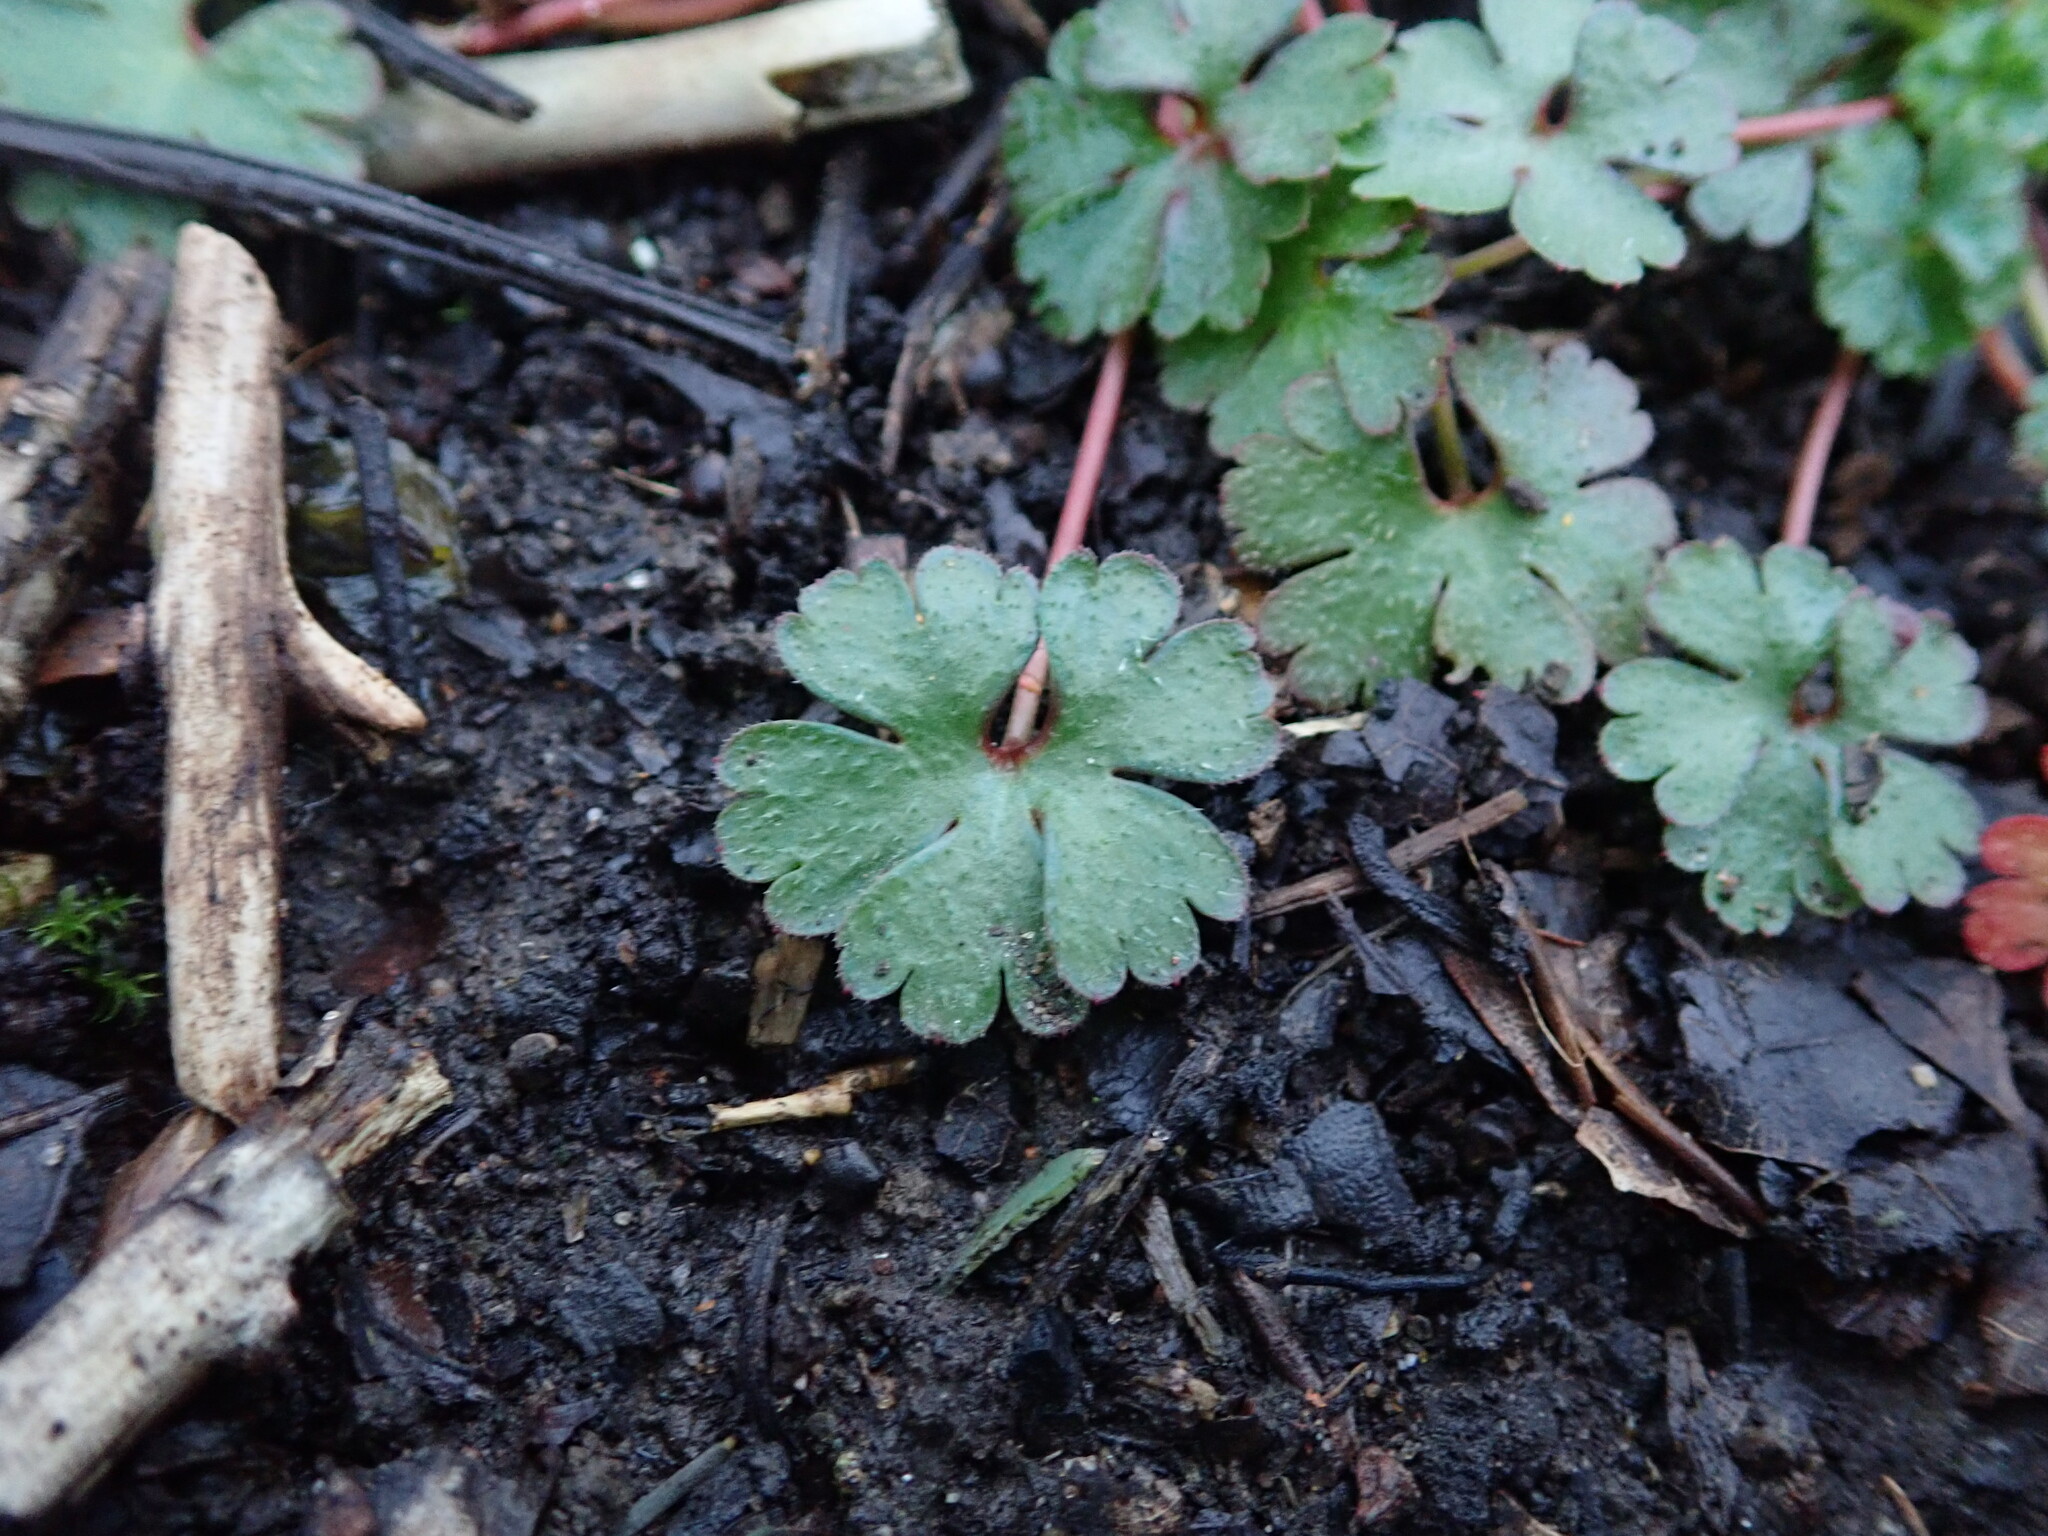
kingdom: Plantae
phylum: Tracheophyta
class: Magnoliopsida
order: Geraniales
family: Geraniaceae
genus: Geranium
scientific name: Geranium lucidum
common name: Shining crane's-bill
